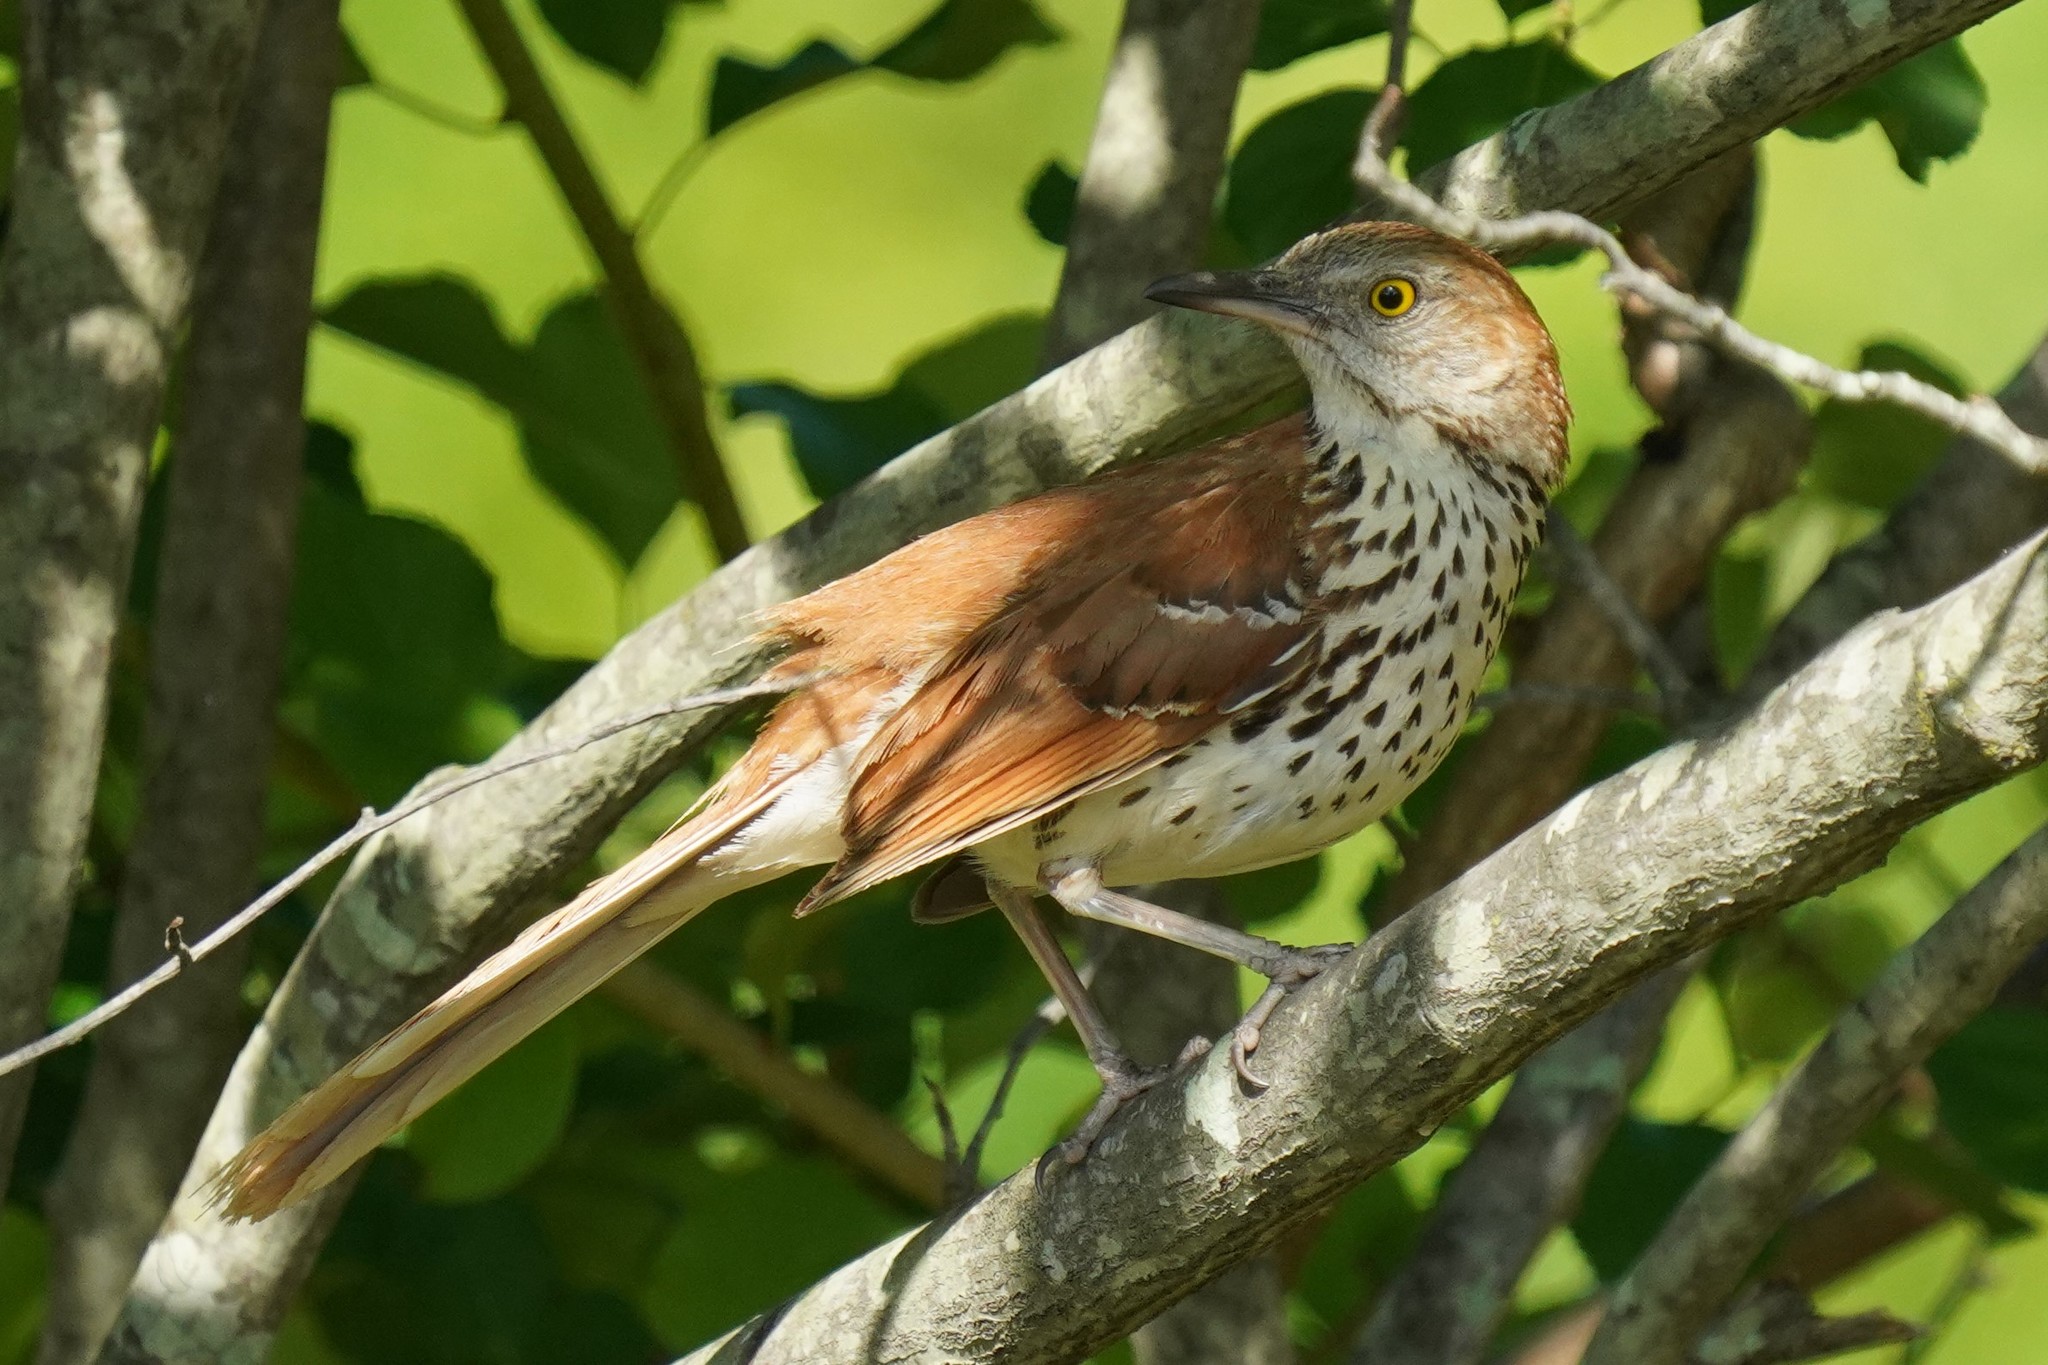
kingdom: Animalia
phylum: Chordata
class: Aves
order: Passeriformes
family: Mimidae
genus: Toxostoma
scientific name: Toxostoma rufum
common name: Brown thrasher
